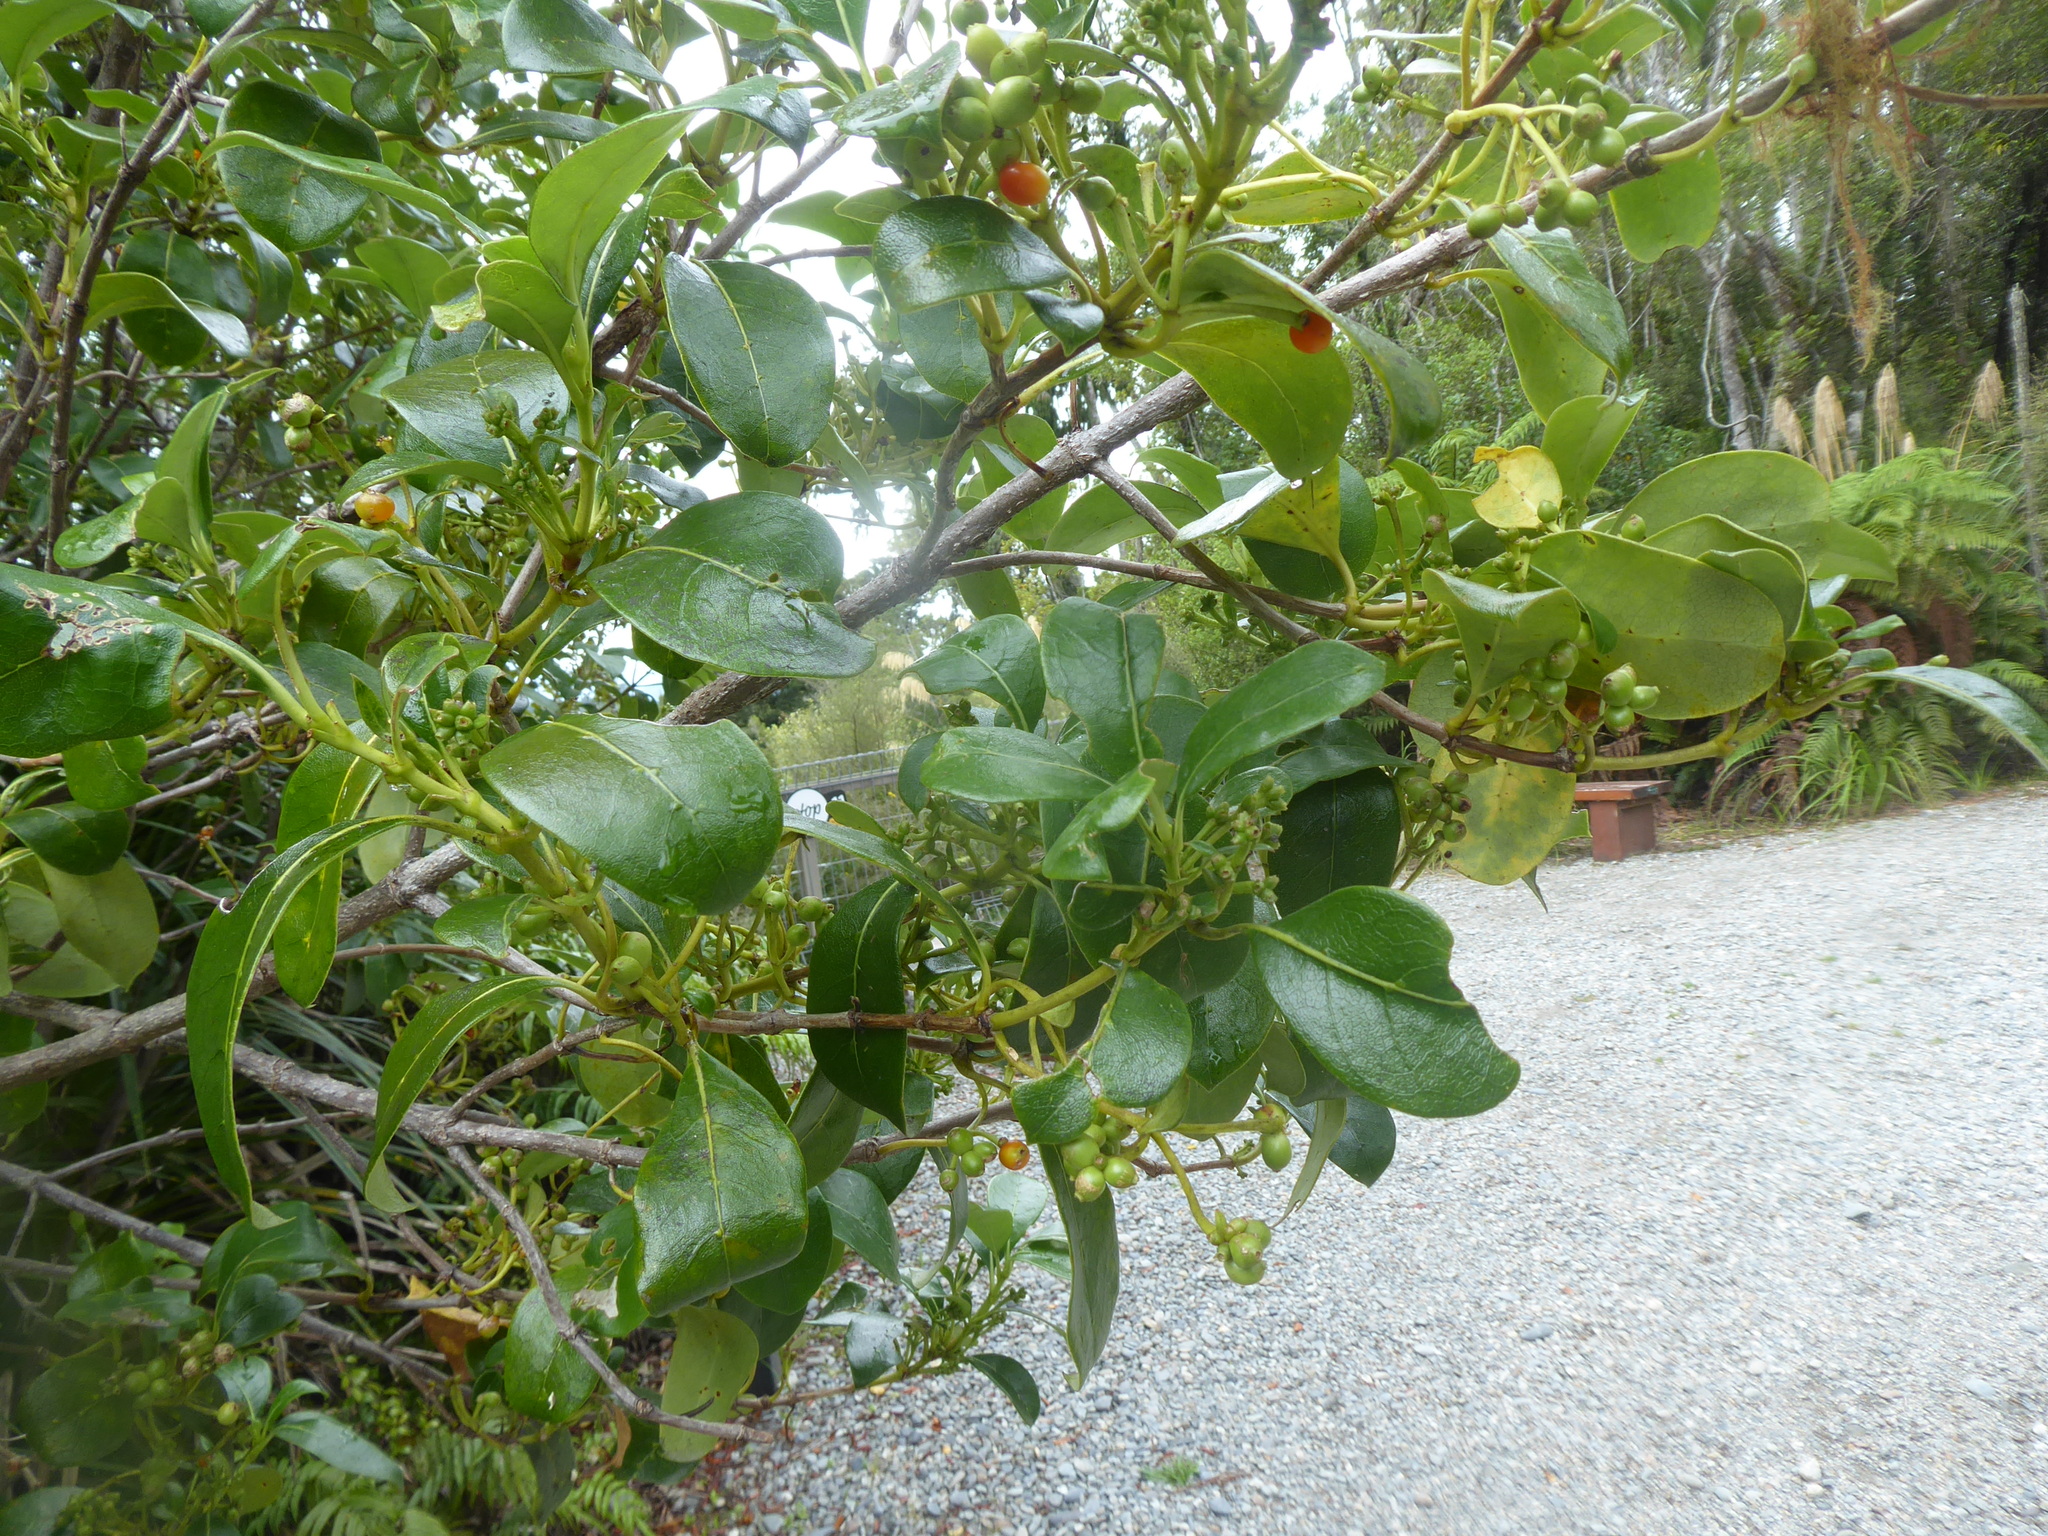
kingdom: Plantae
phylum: Tracheophyta
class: Magnoliopsida
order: Gentianales
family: Rubiaceae
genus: Coprosma
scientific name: Coprosma lucida
